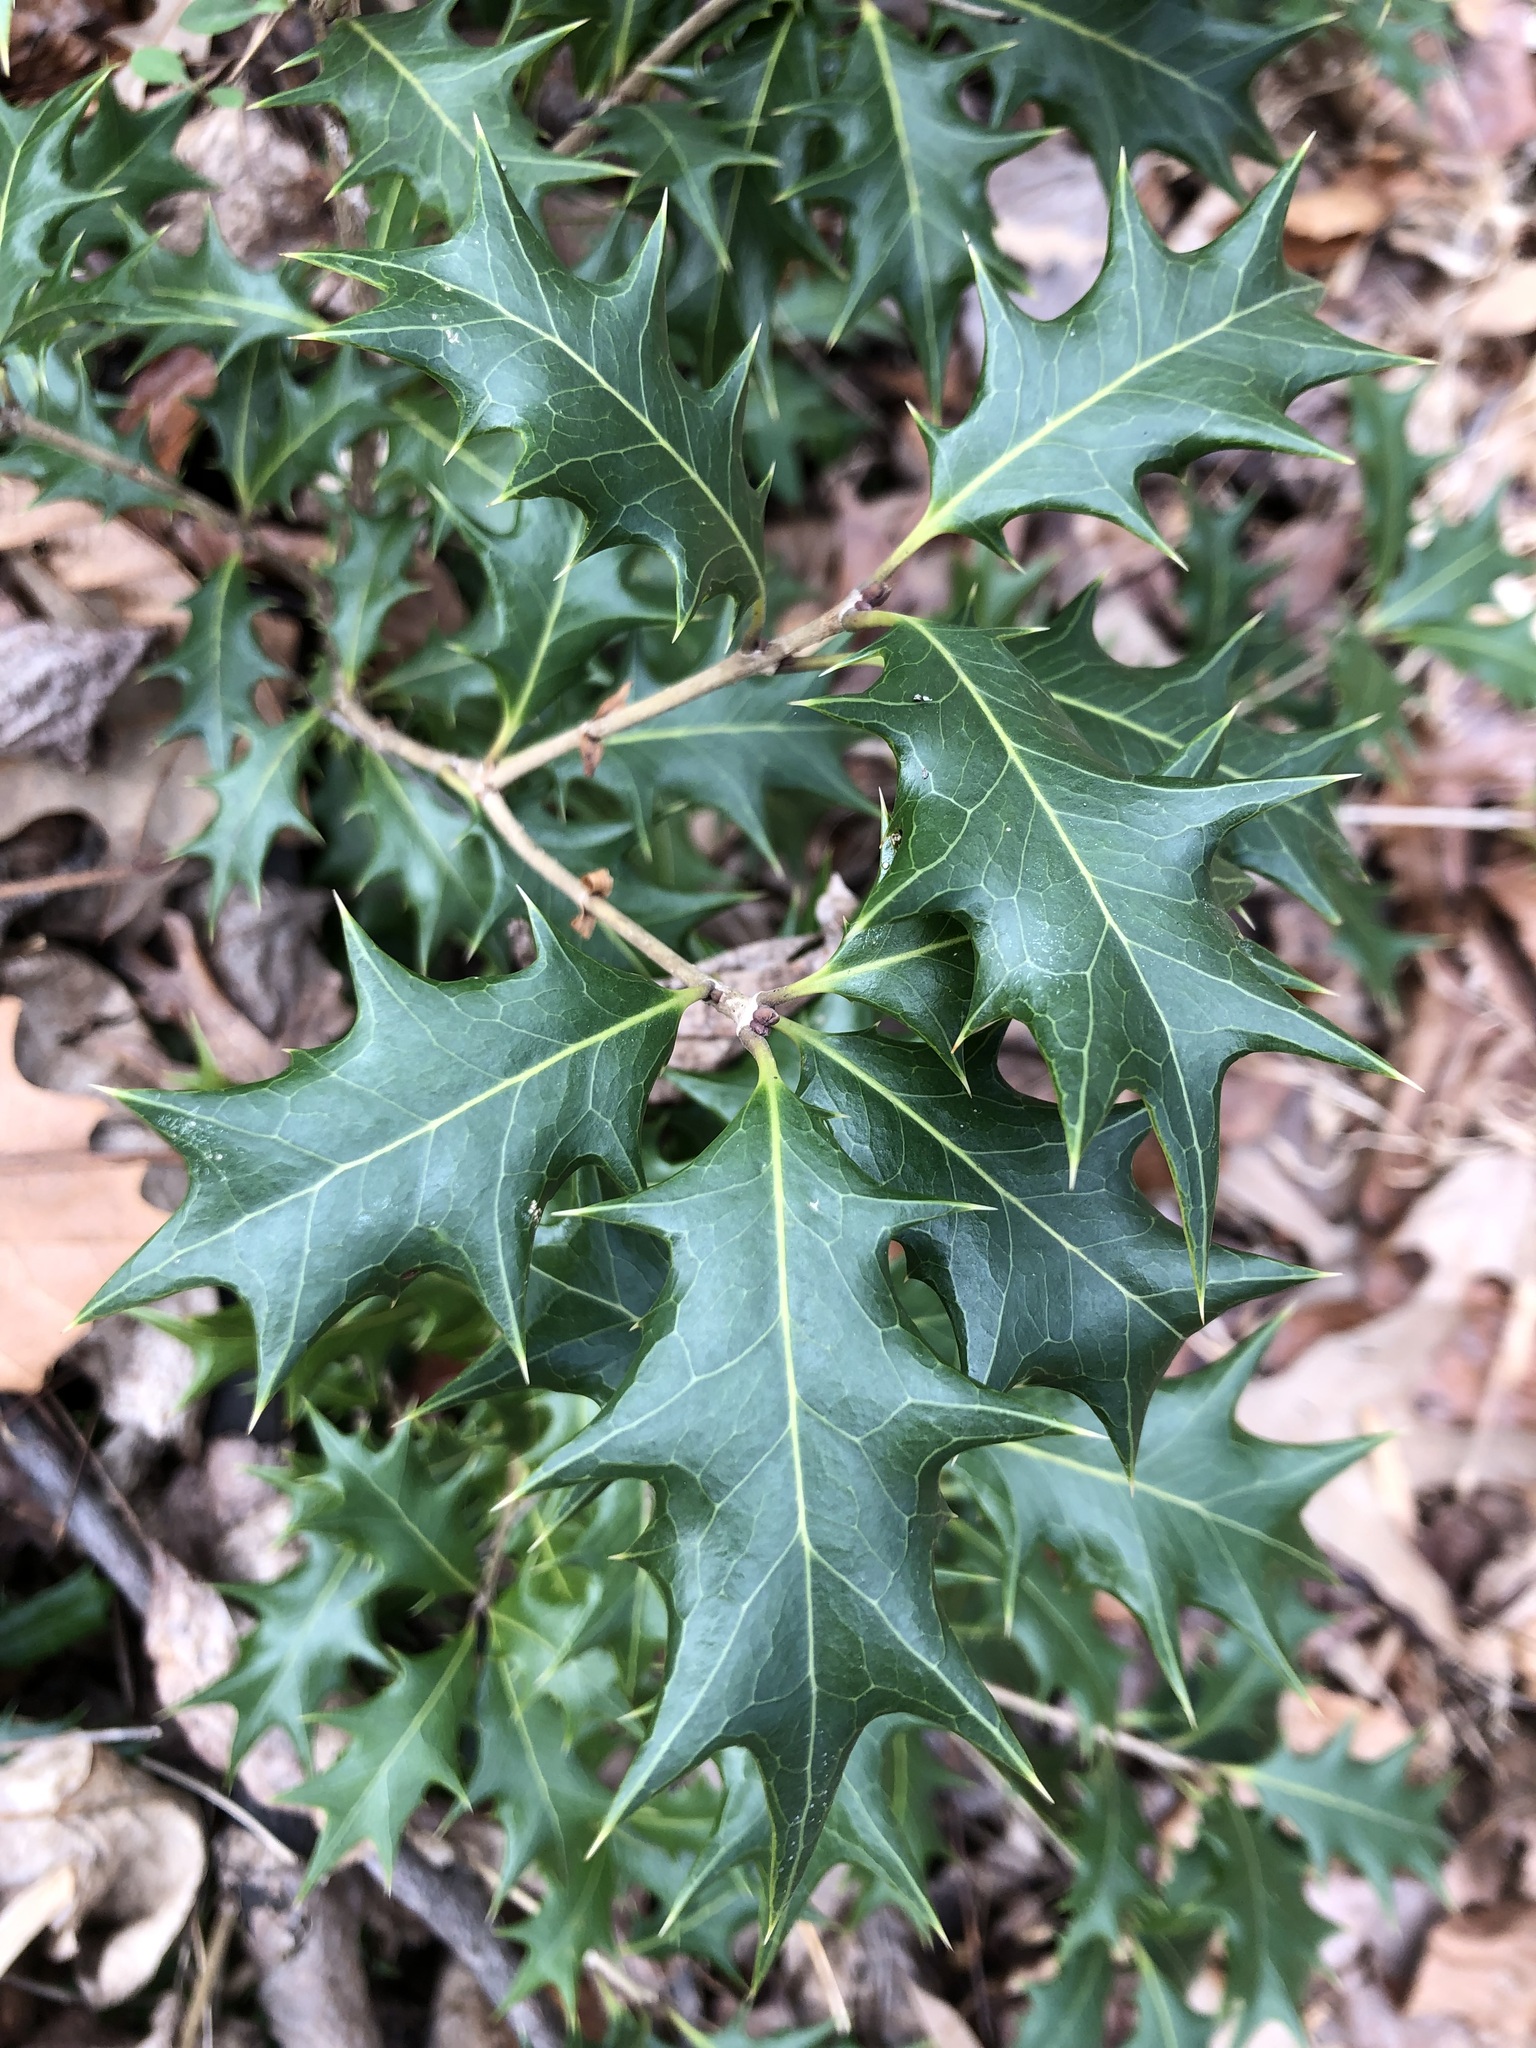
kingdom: Plantae
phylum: Tracheophyta
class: Magnoliopsida
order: Lamiales
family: Oleaceae
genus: Osmanthus
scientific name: Osmanthus heterophyllus
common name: Holly osmanthus
